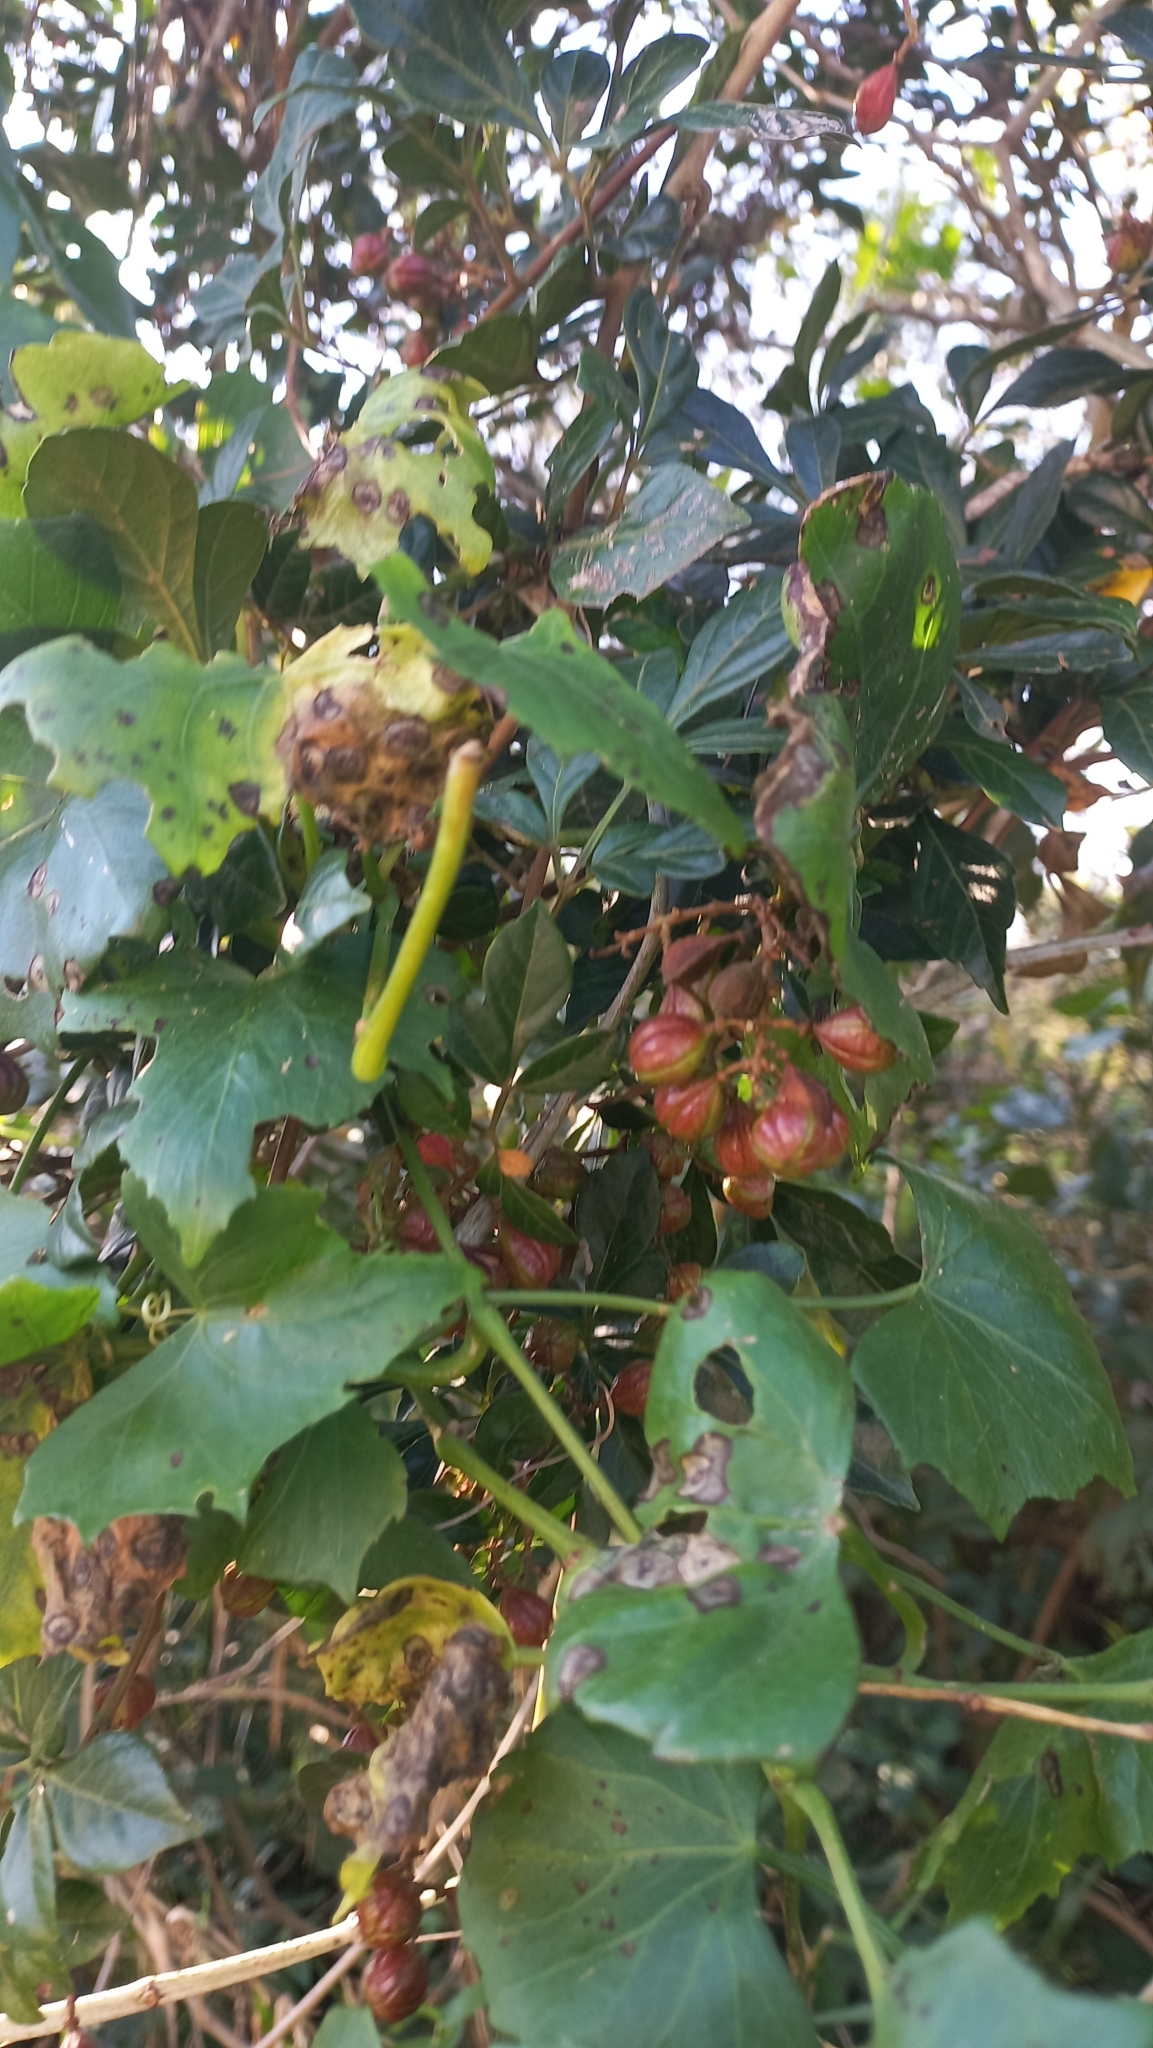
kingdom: Plantae
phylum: Tracheophyta
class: Magnoliopsida
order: Sapindales
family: Sapindaceae
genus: Paullinia
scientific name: Paullinia trigonia
